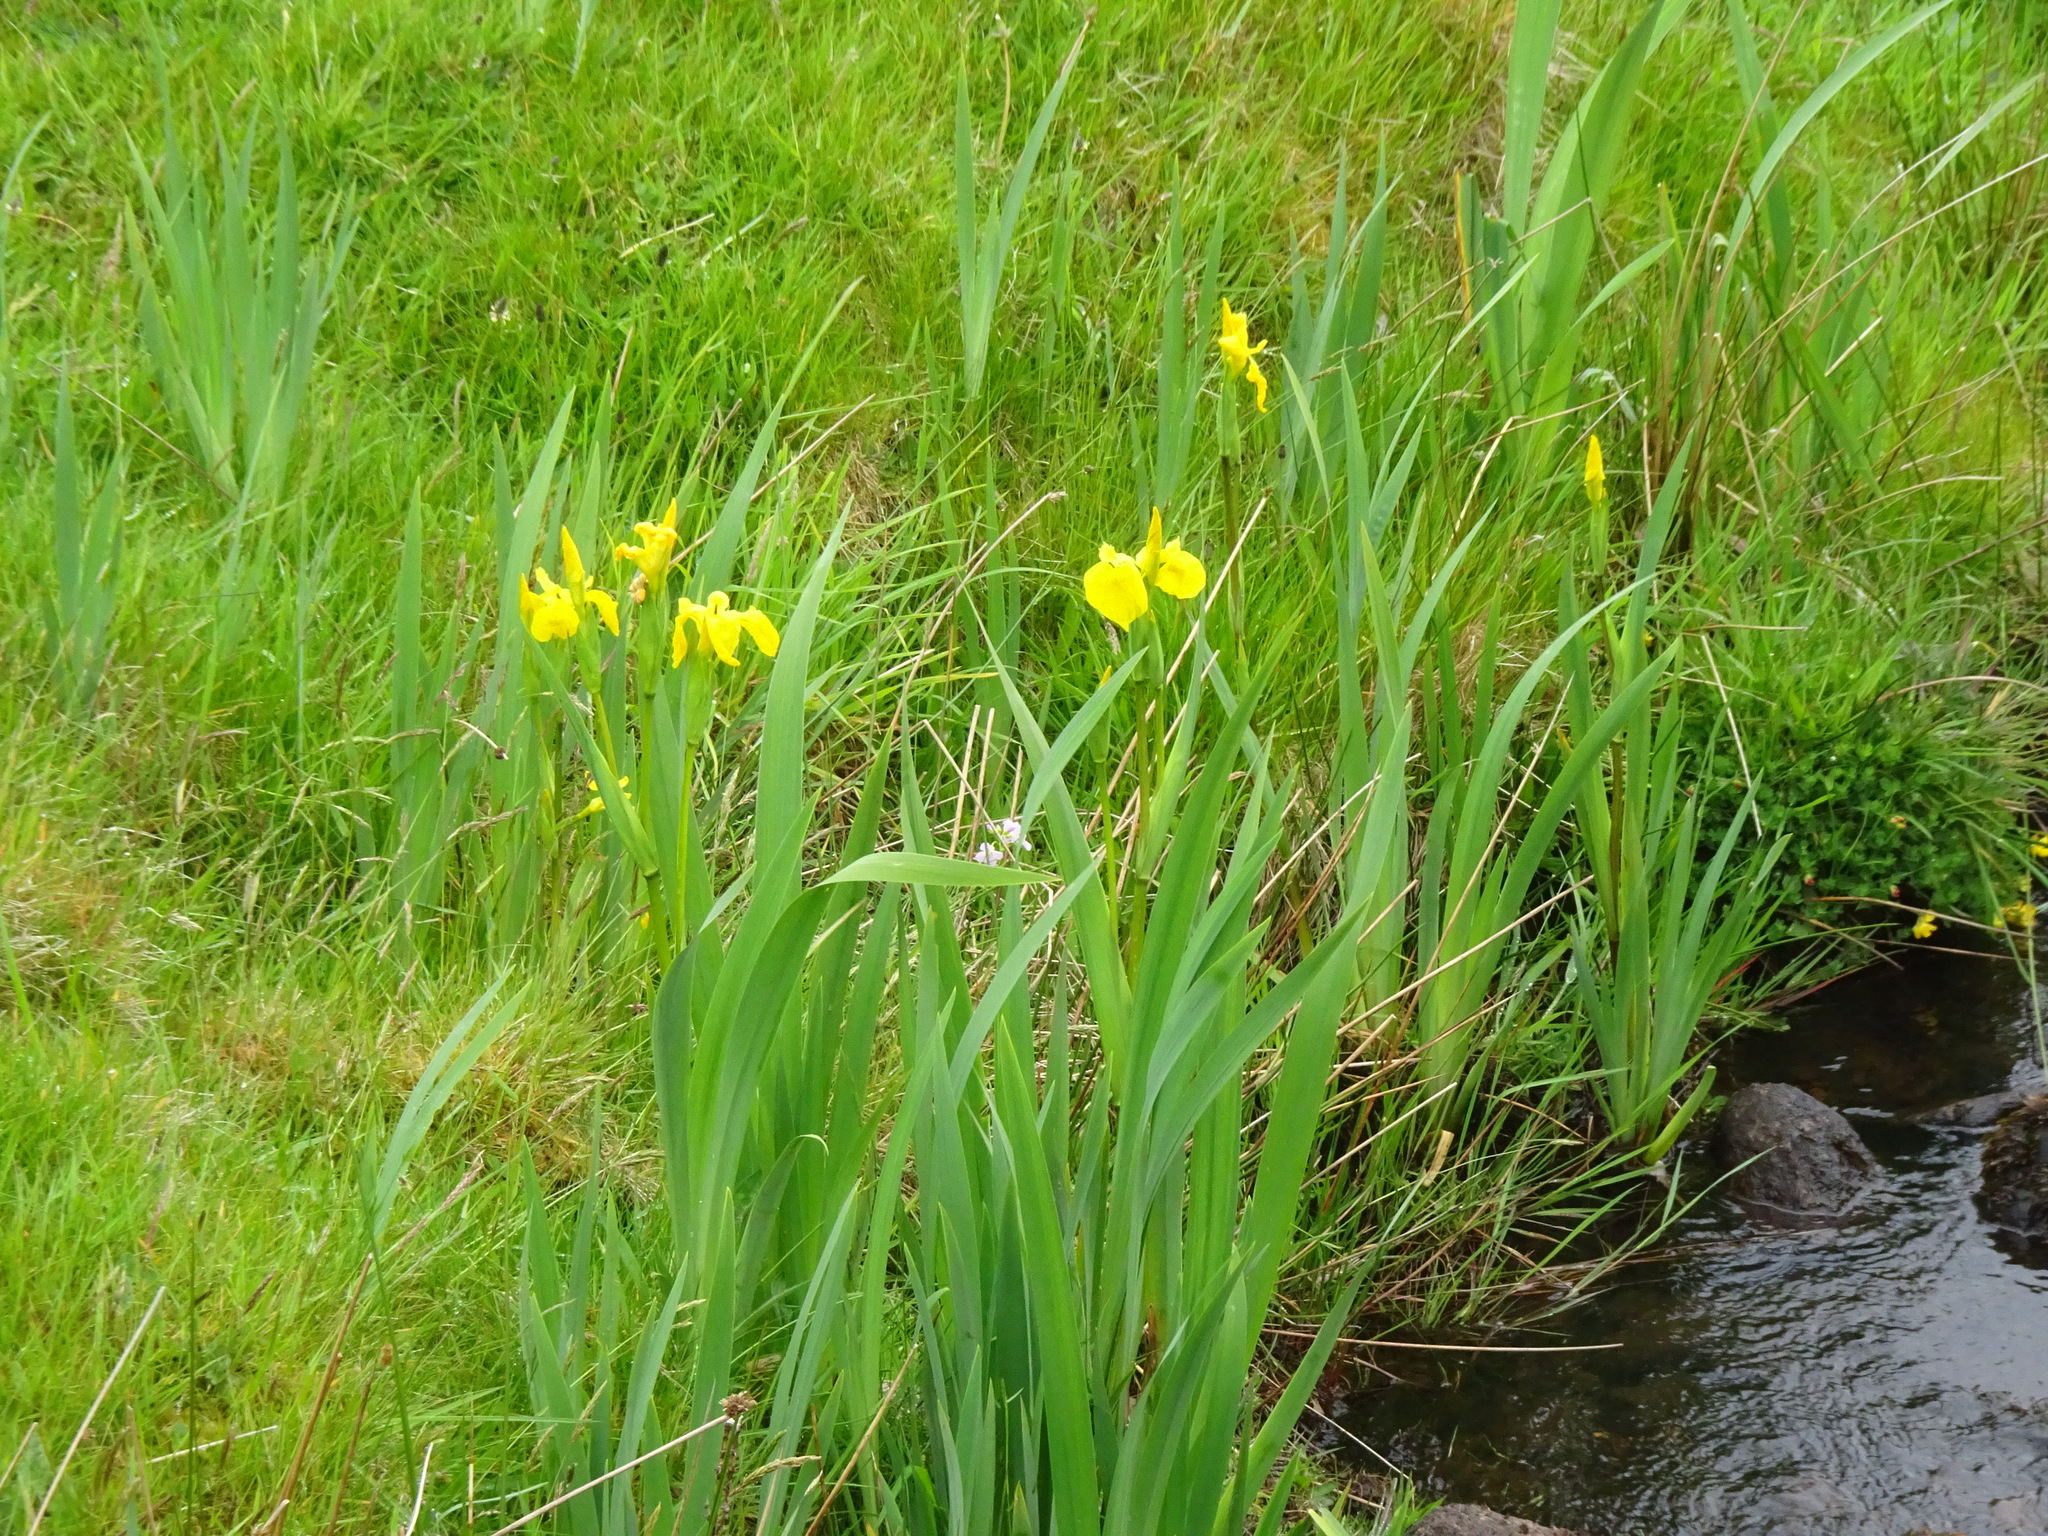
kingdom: Plantae
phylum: Tracheophyta
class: Liliopsida
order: Asparagales
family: Iridaceae
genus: Iris
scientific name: Iris pseudacorus
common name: Yellow flag
